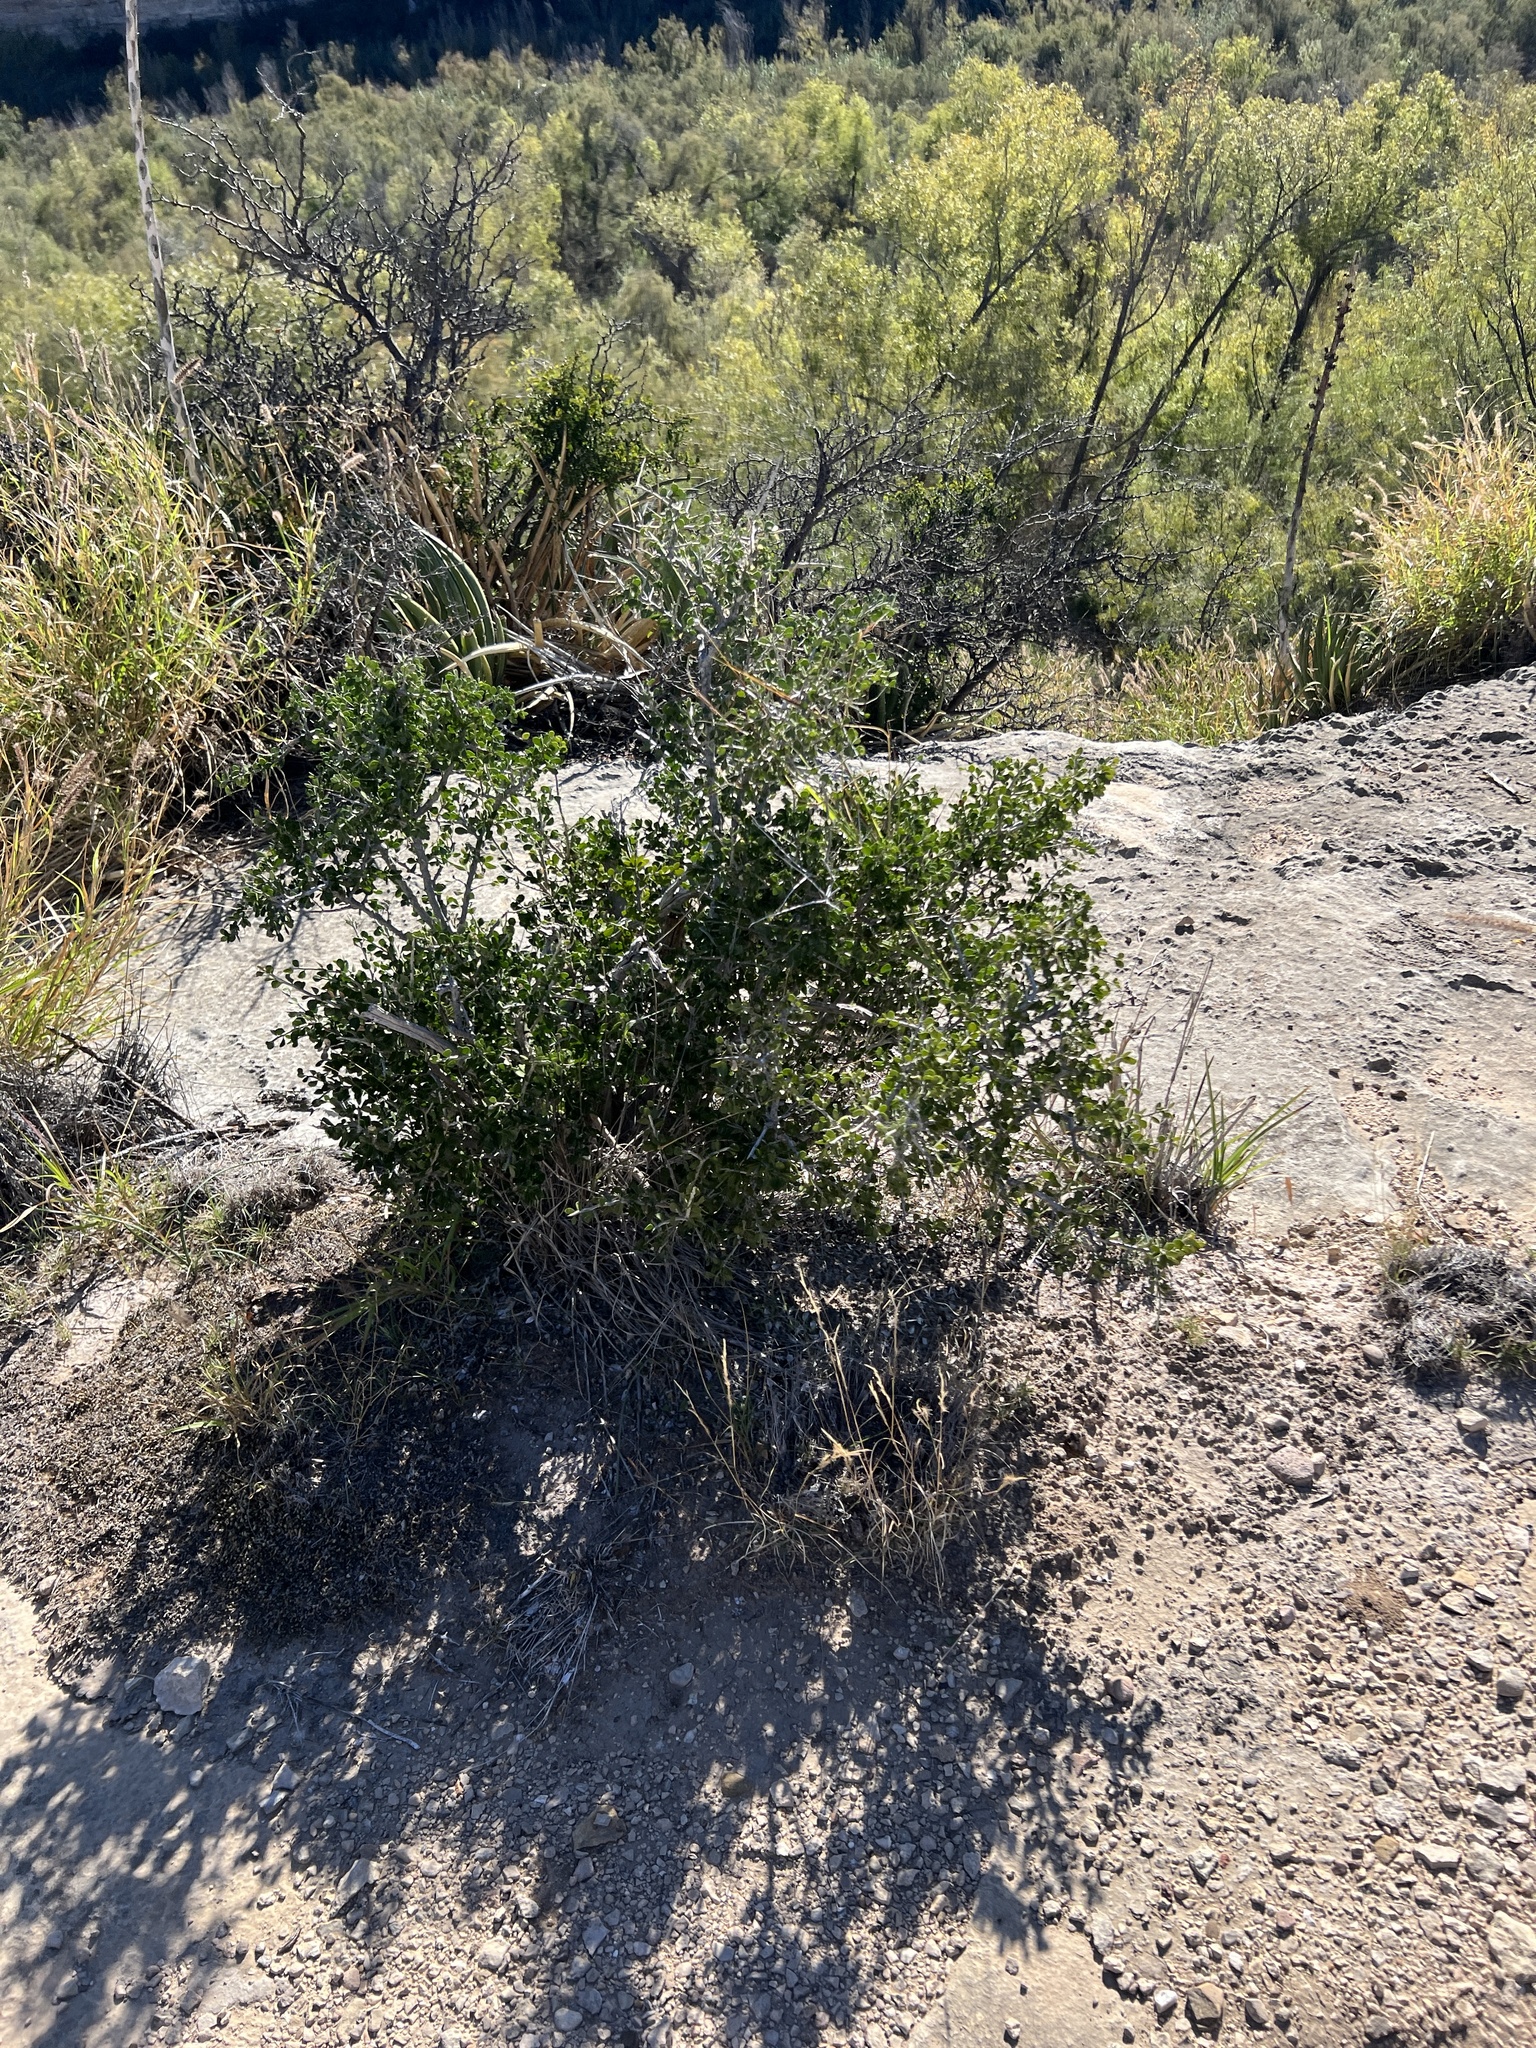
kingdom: Plantae
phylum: Tracheophyta
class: Magnoliopsida
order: Celastrales
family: Celastraceae
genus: Schaefferia
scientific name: Schaefferia cuneifolia
